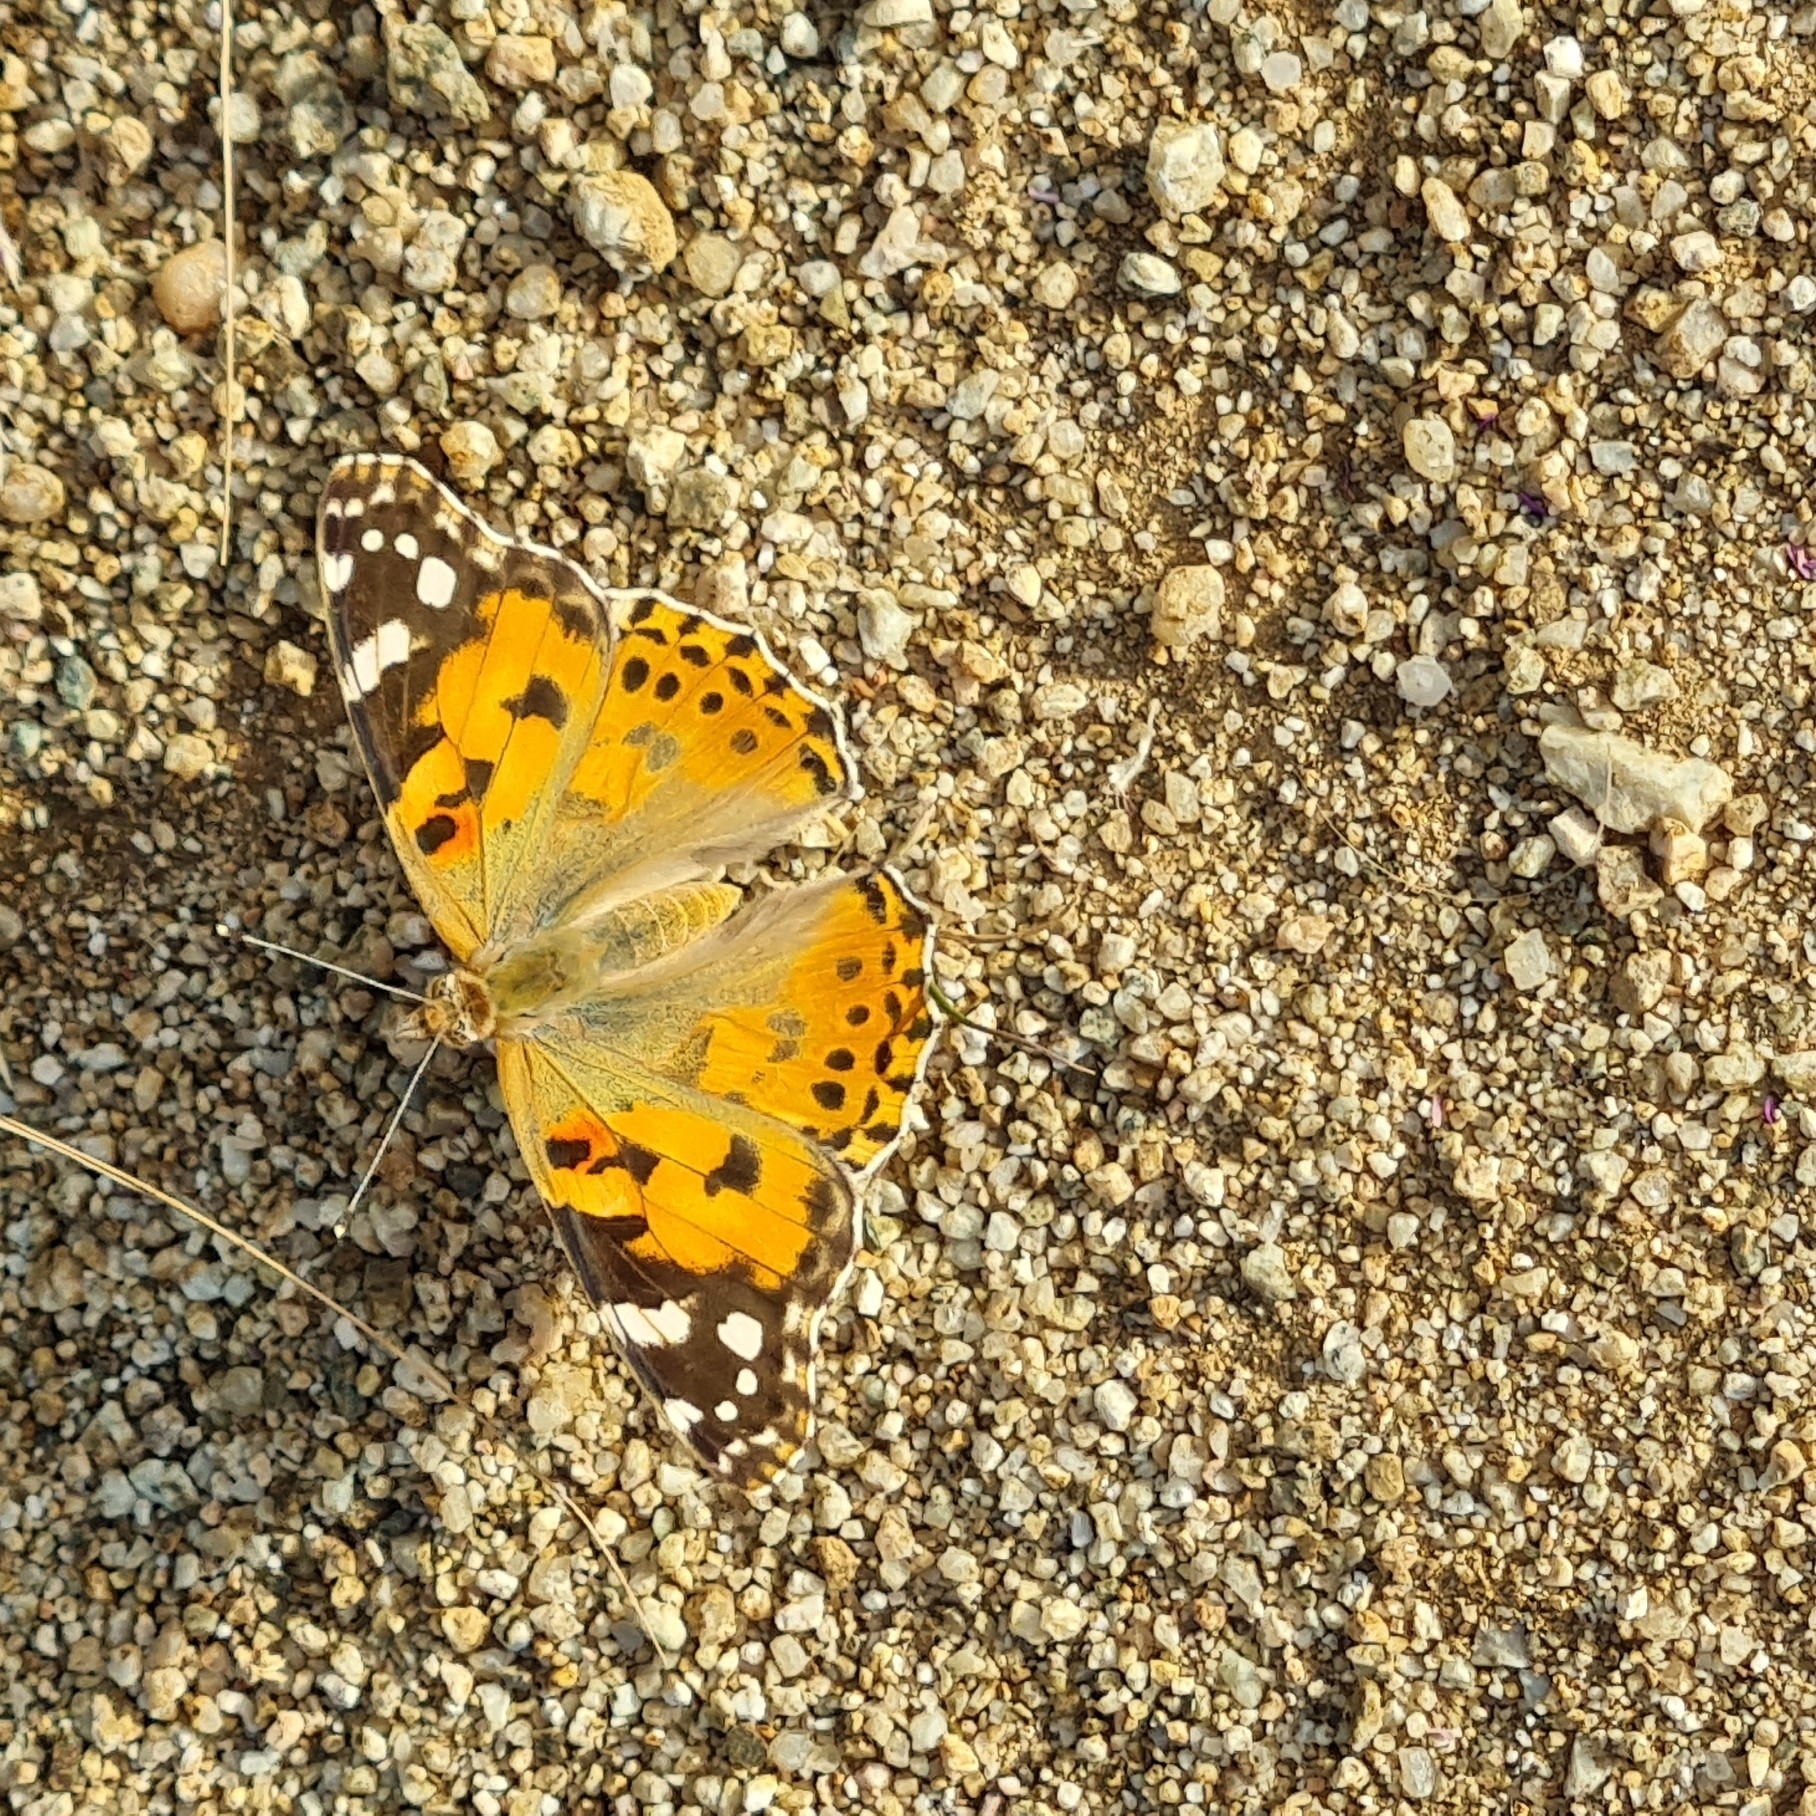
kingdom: Animalia
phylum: Arthropoda
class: Insecta
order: Lepidoptera
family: Nymphalidae
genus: Vanessa
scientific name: Vanessa cardui
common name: Painted lady
